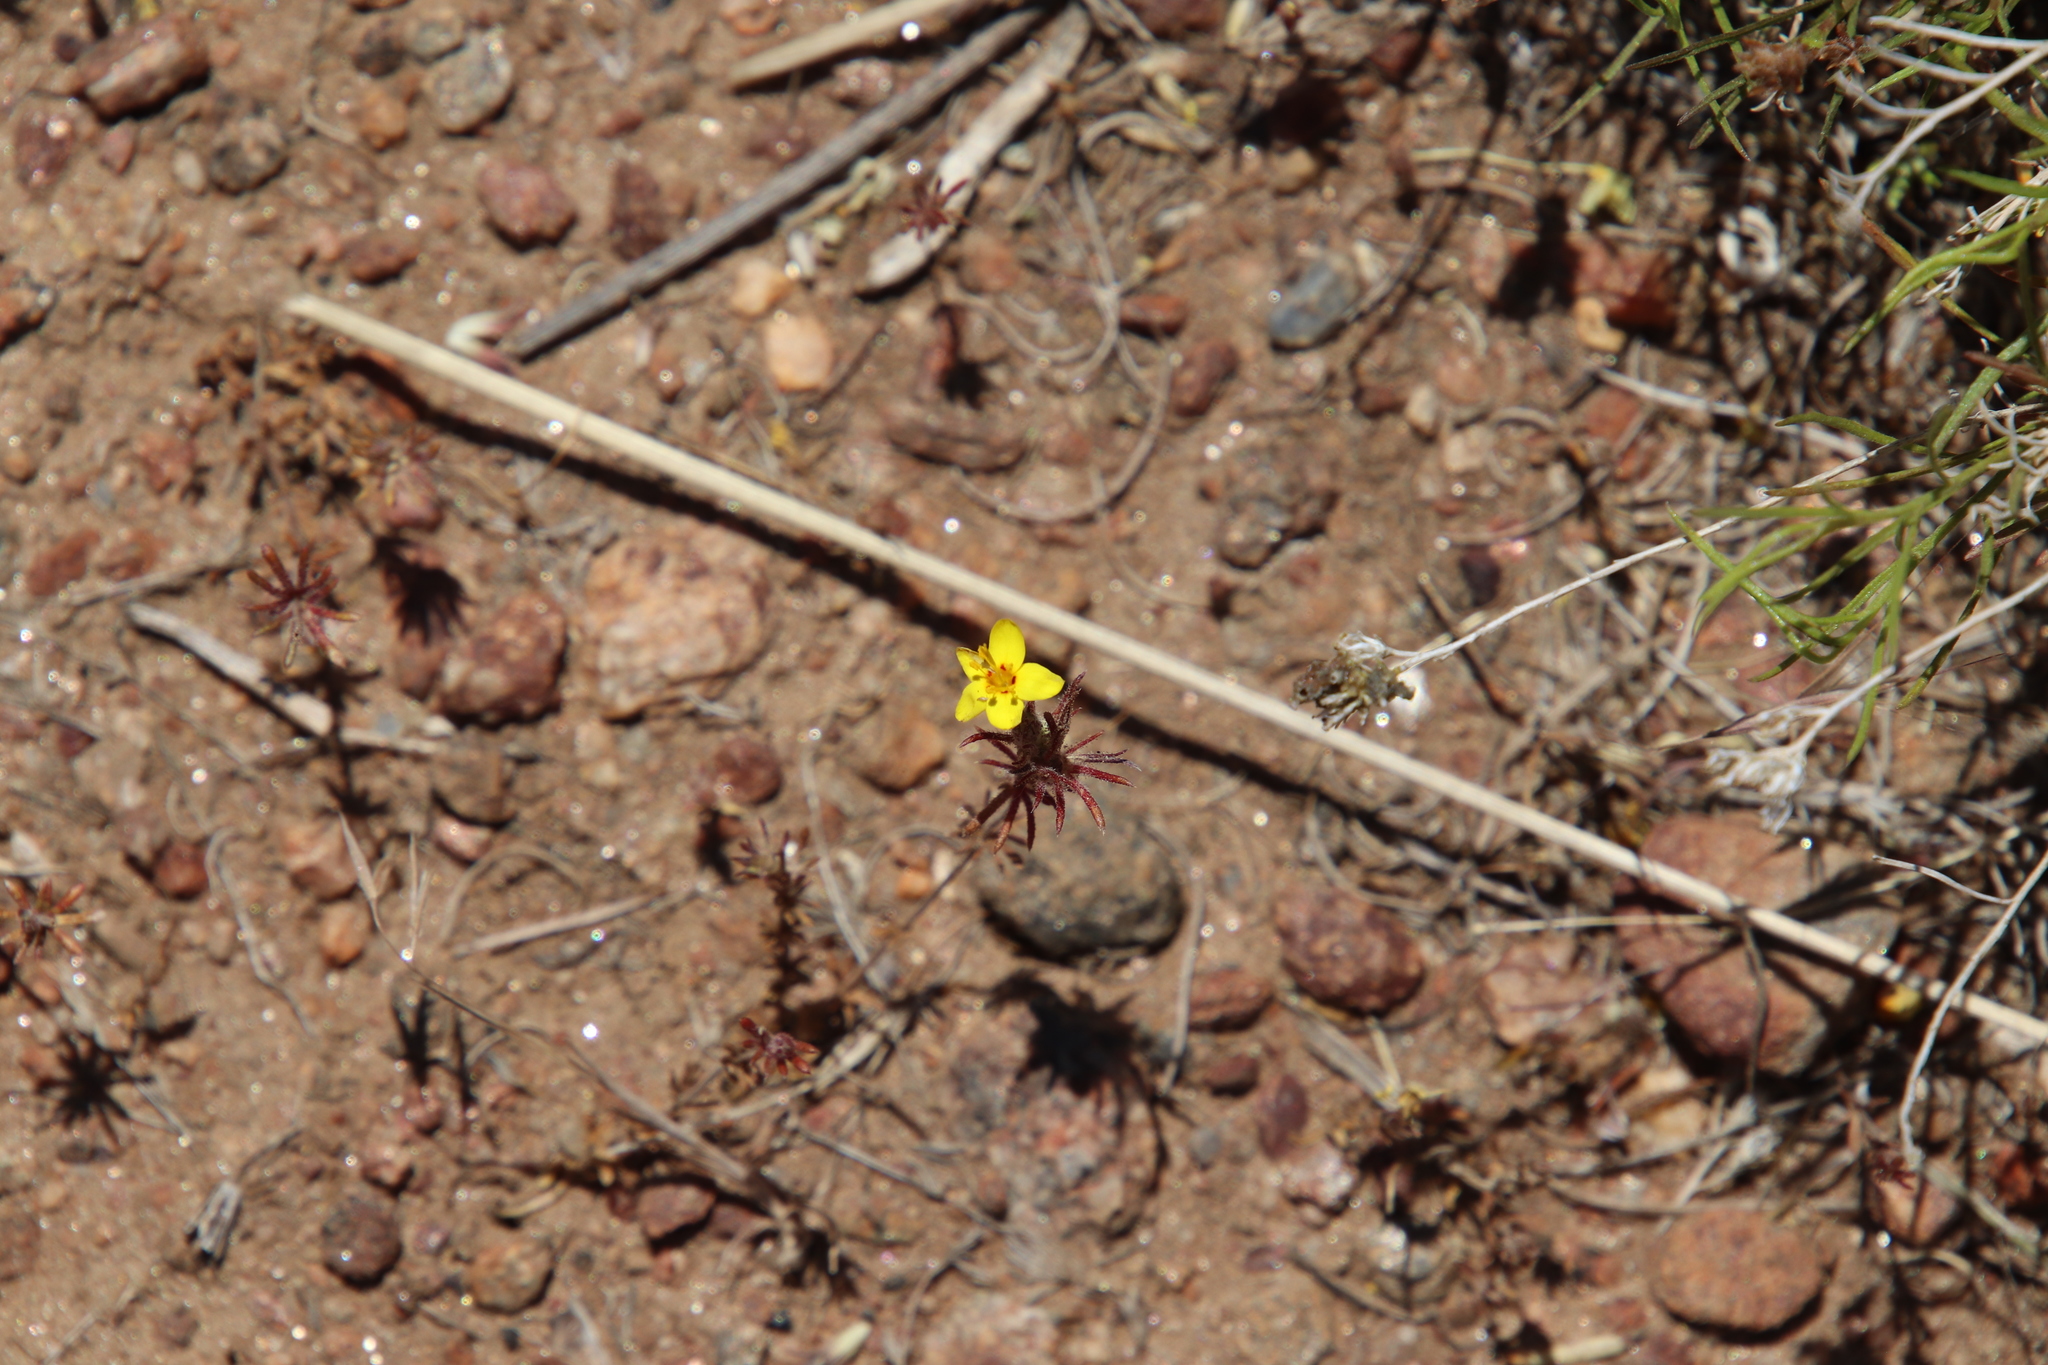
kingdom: Plantae
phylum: Tracheophyta
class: Magnoliopsida
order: Ericales
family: Polemoniaceae
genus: Leptosiphon
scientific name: Leptosiphon parviflorus
